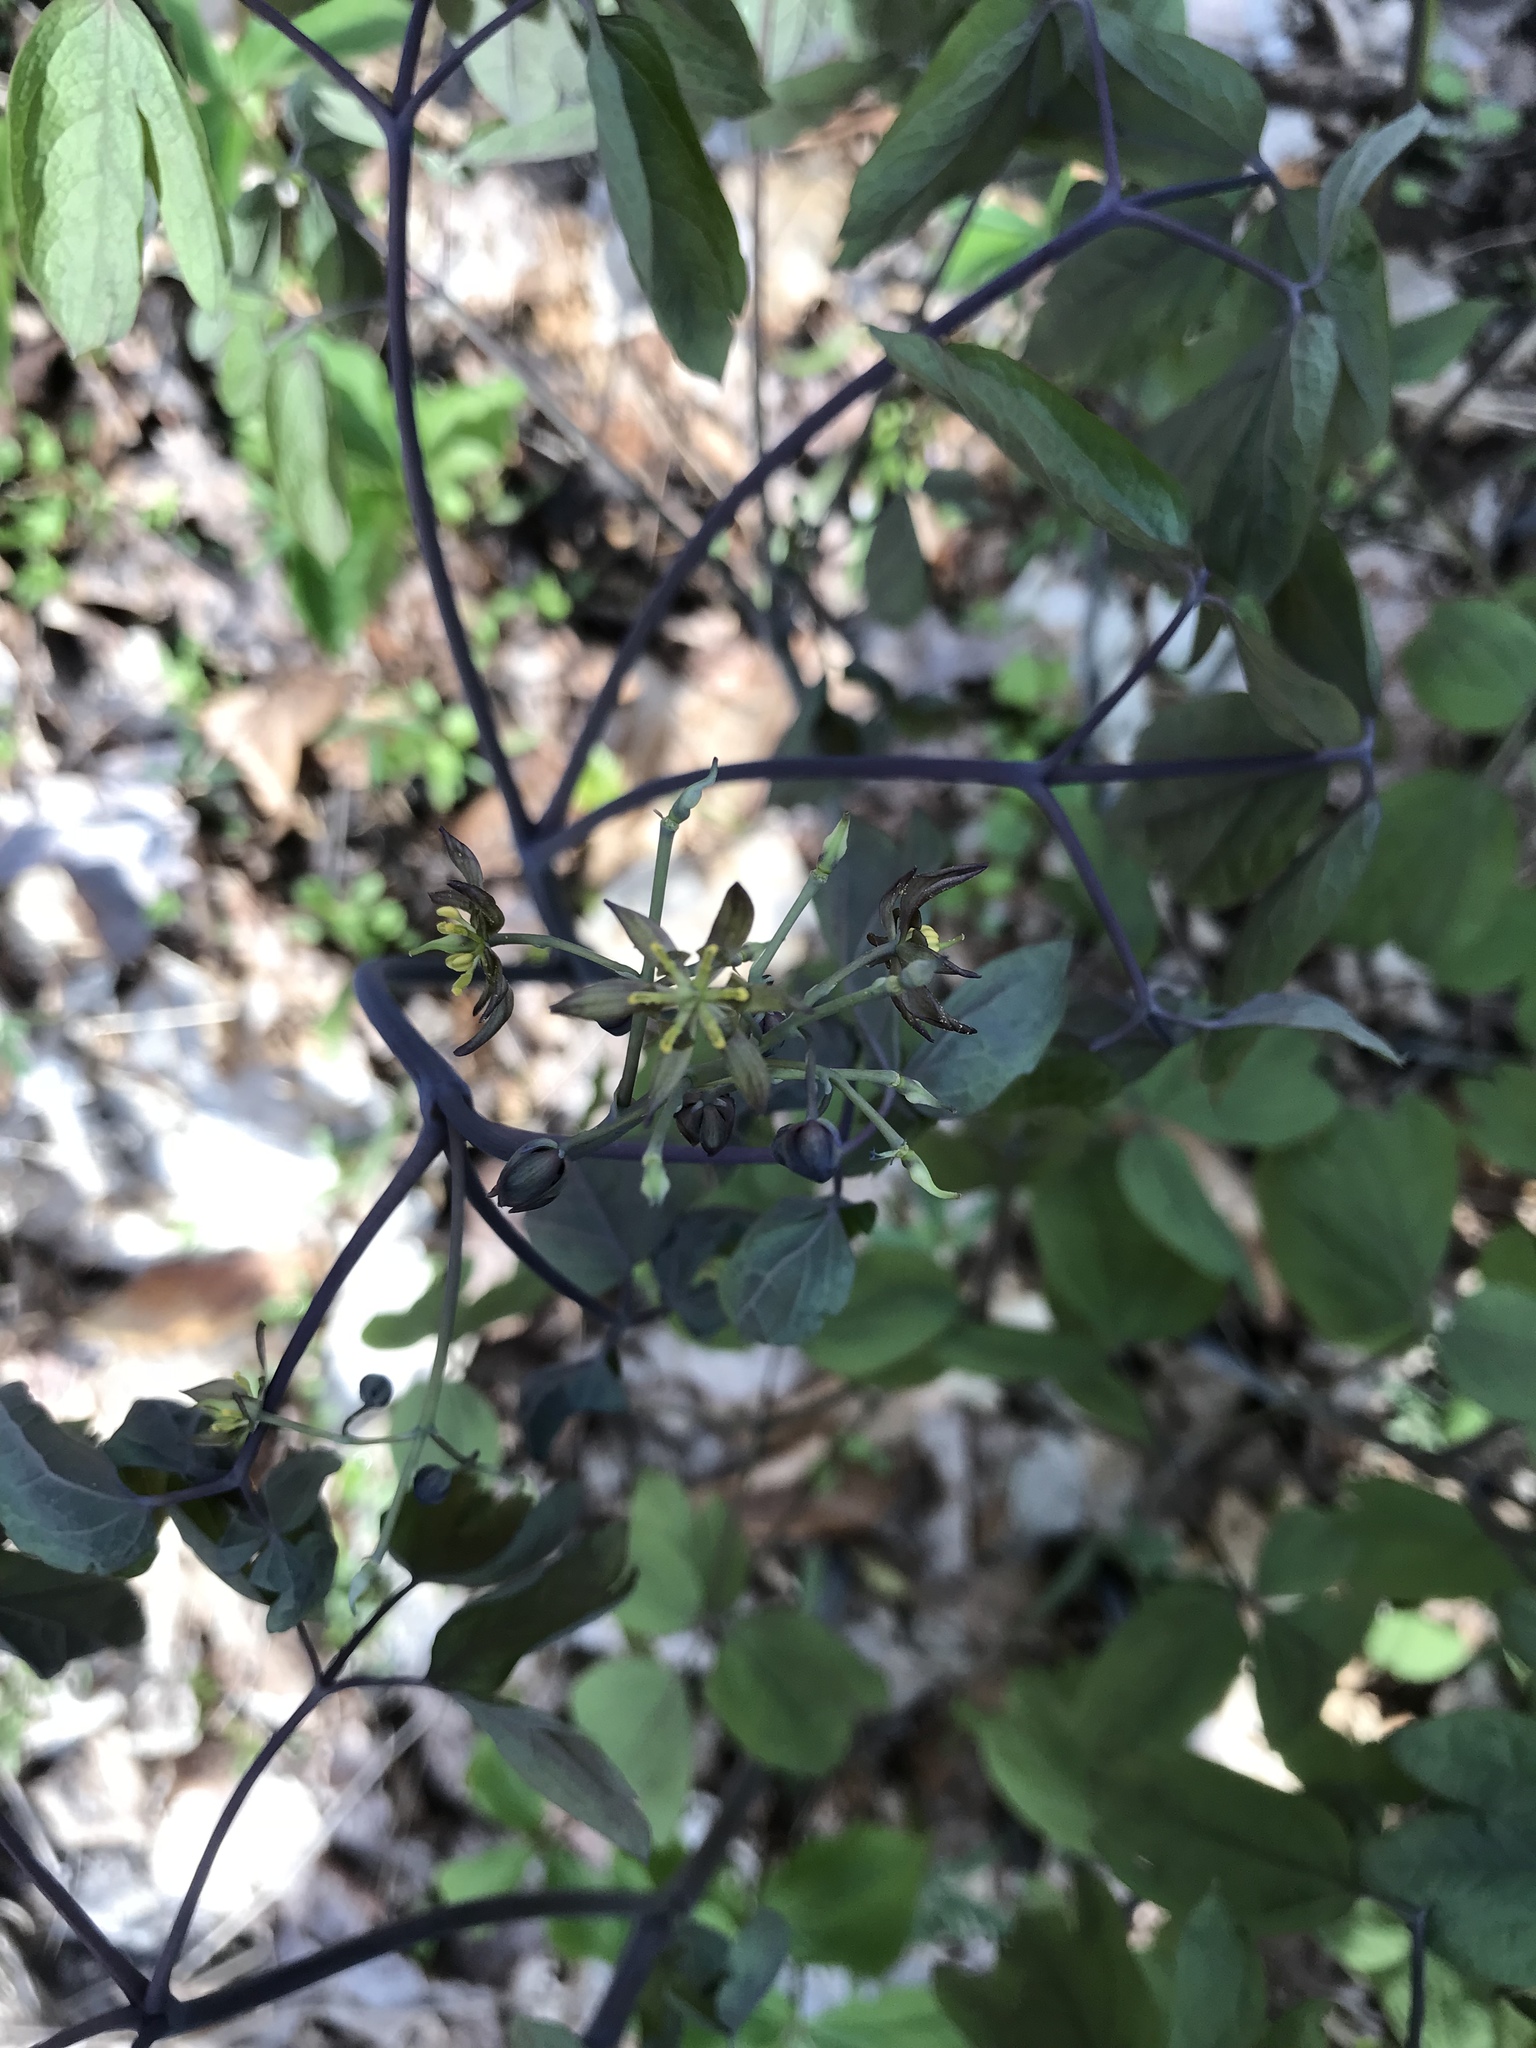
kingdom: Plantae
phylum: Tracheophyta
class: Magnoliopsida
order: Ranunculales
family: Berberidaceae
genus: Caulophyllum
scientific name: Caulophyllum giganteum
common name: Blue cohosh
